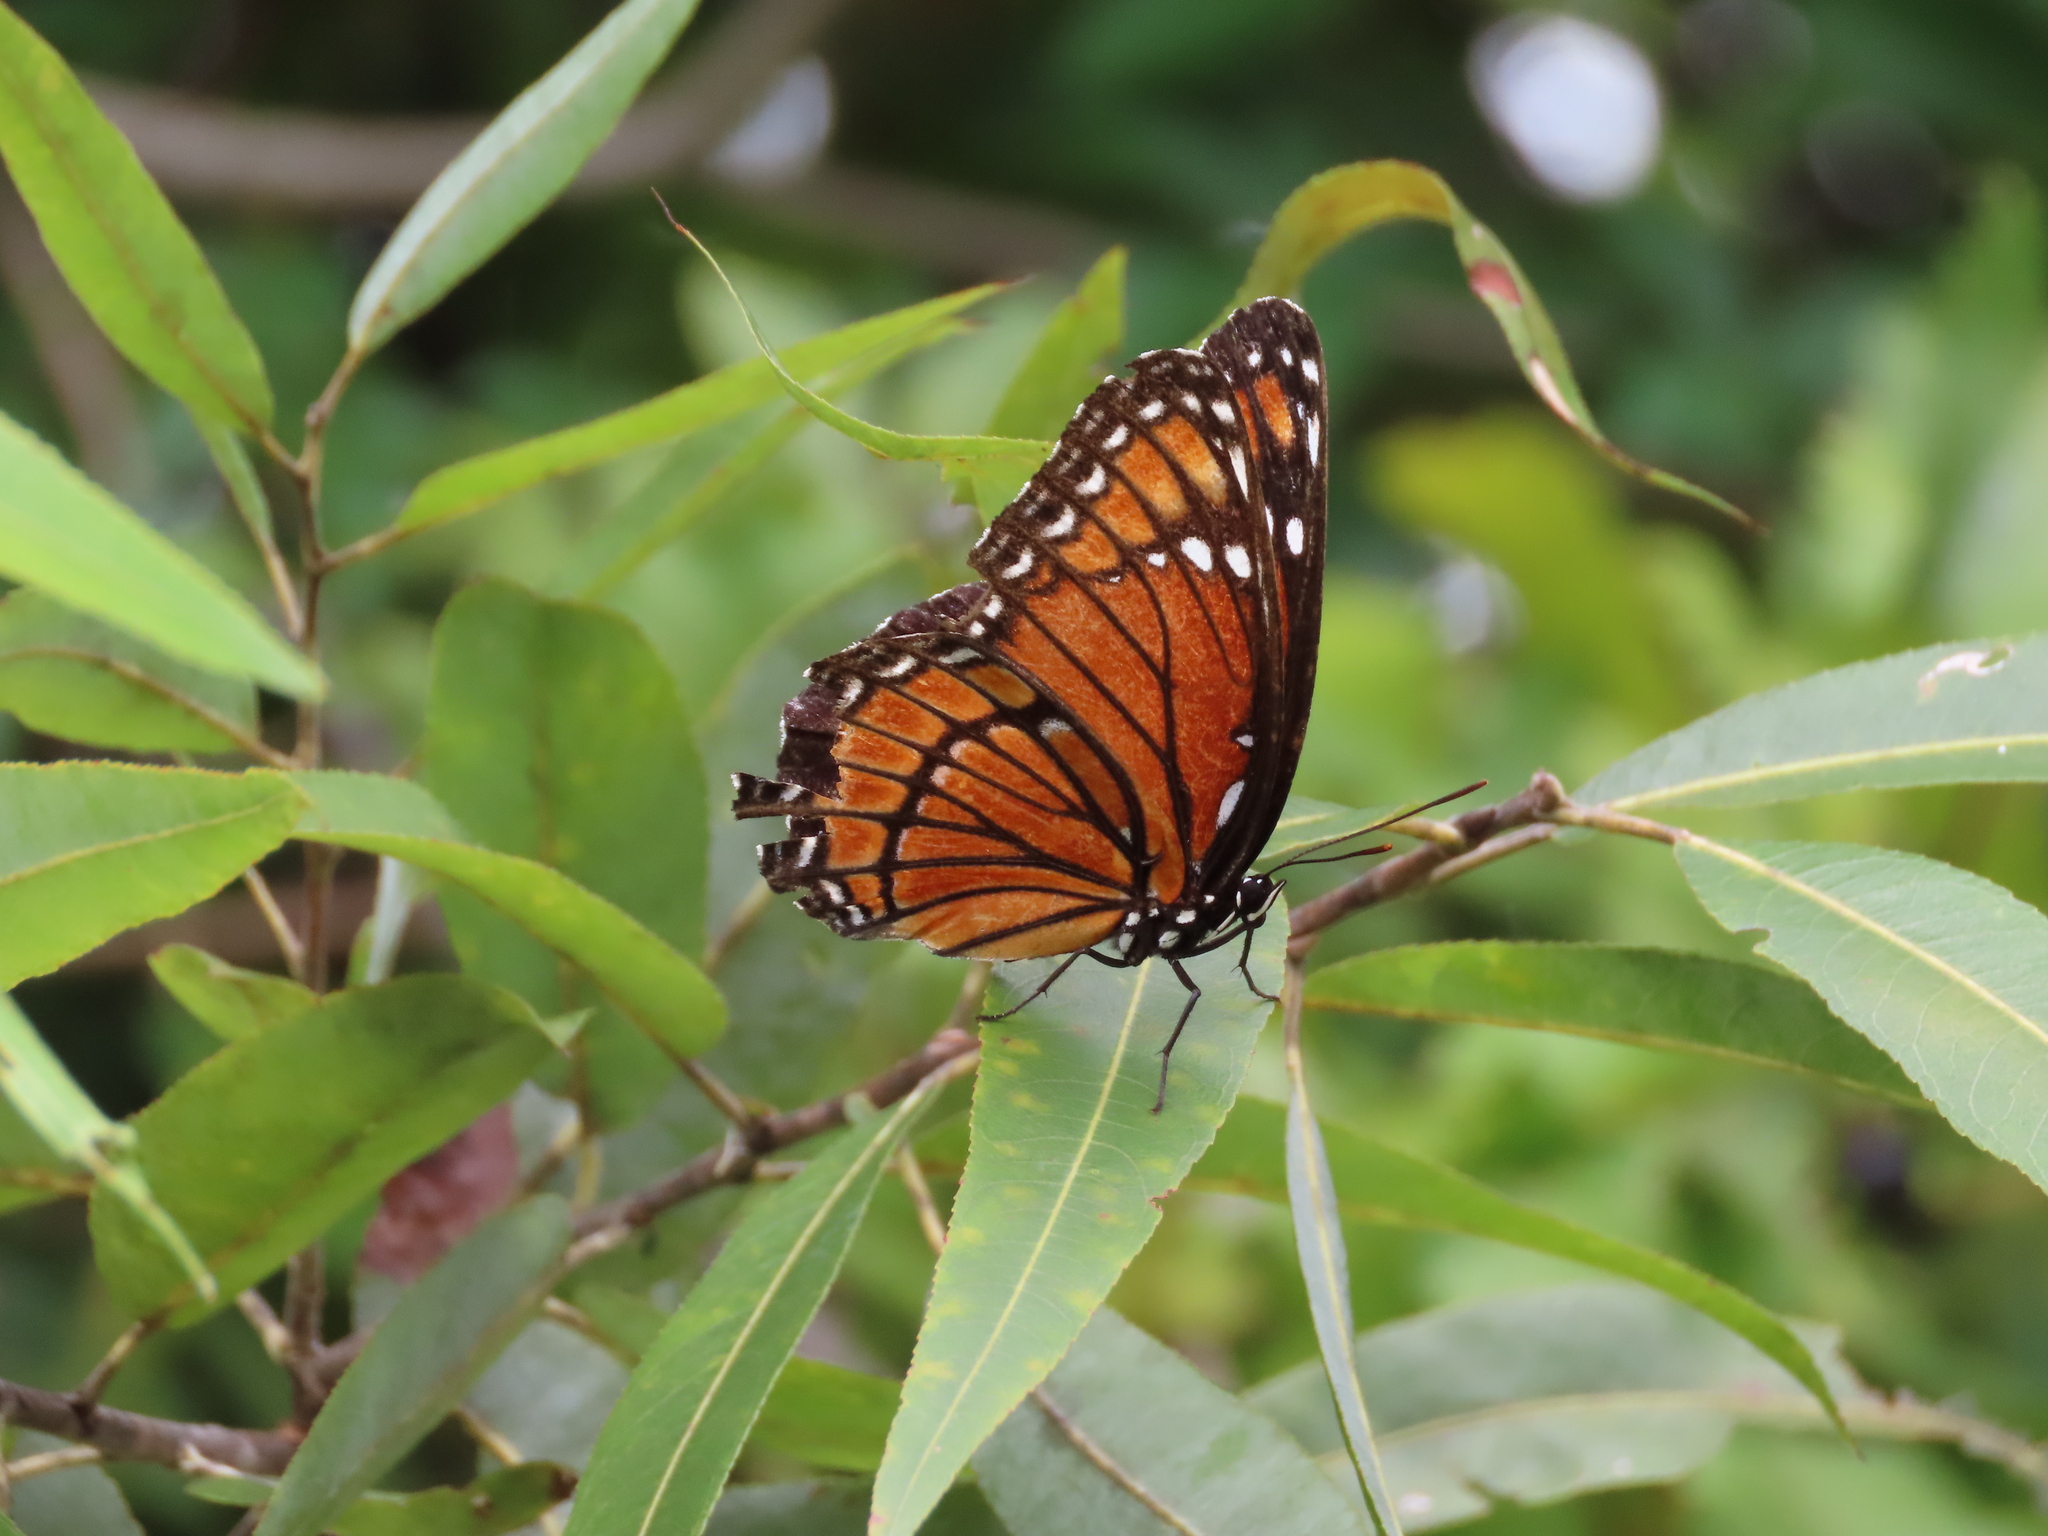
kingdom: Animalia
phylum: Arthropoda
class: Insecta
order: Lepidoptera
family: Nymphalidae
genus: Limenitis
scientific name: Limenitis archippus
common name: Viceroy
